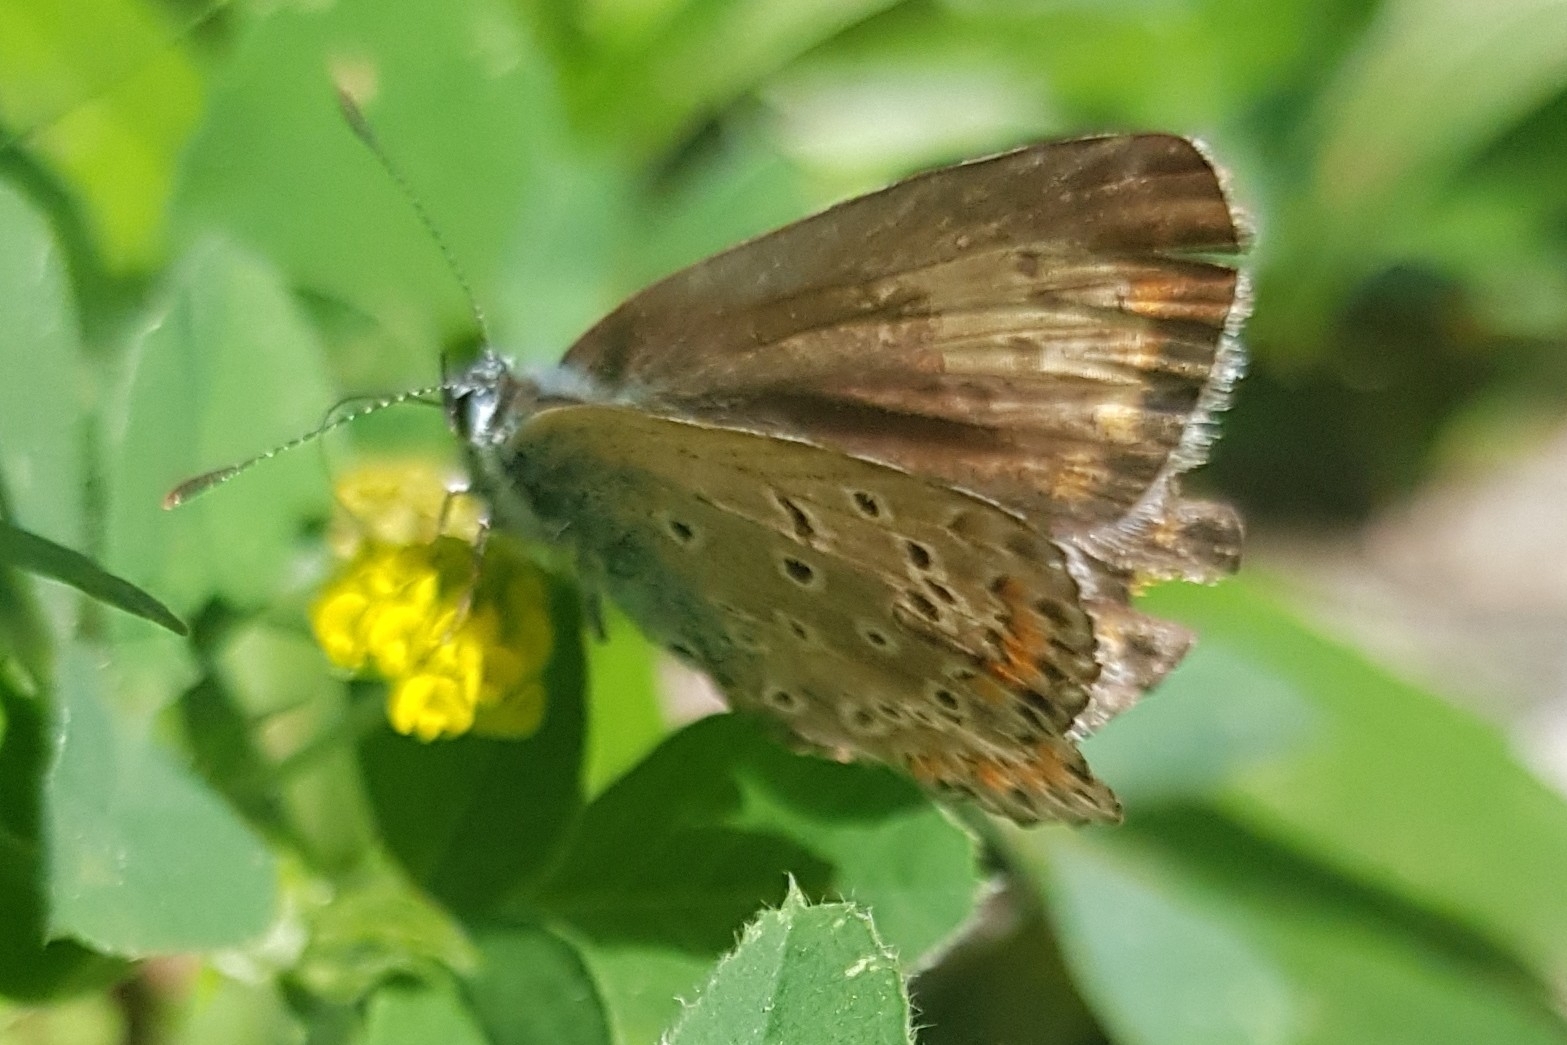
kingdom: Animalia
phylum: Arthropoda
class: Insecta
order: Lepidoptera
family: Lycaenidae
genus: Polyommatus
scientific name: Polyommatus icarus
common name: Common blue
